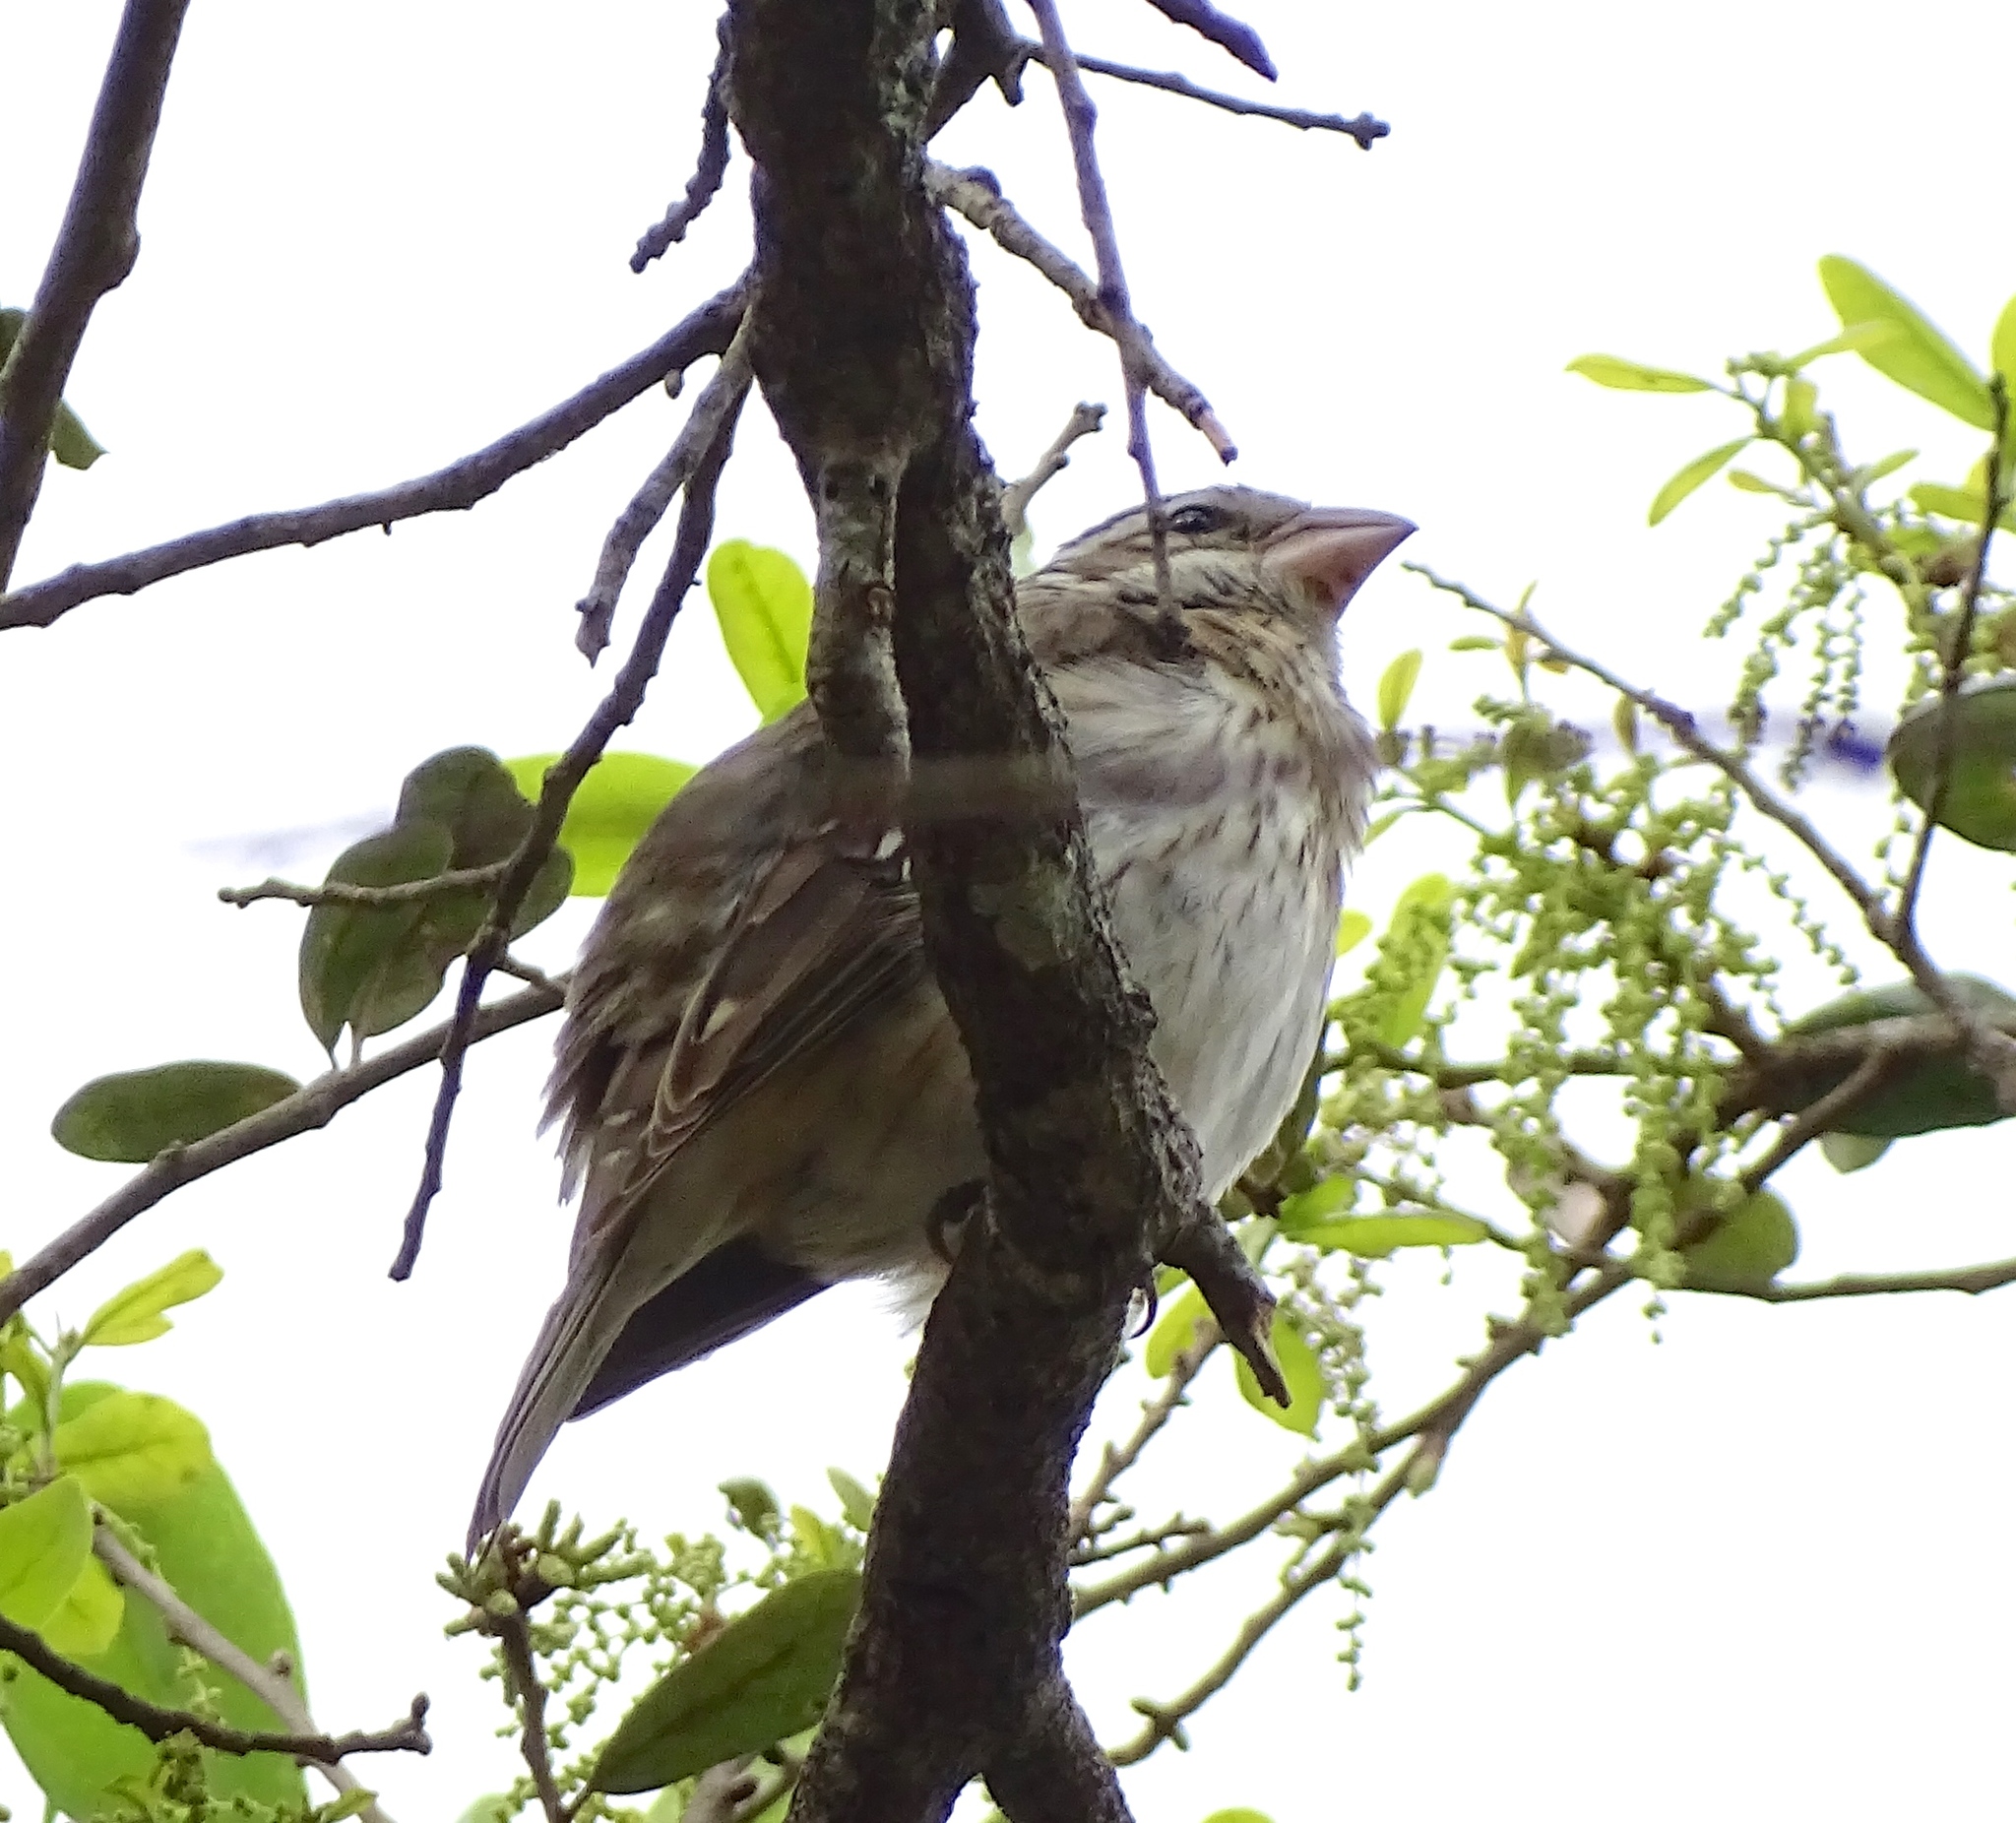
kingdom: Animalia
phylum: Chordata
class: Aves
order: Passeriformes
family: Cardinalidae
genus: Pheucticus
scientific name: Pheucticus ludovicianus
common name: Rose-breasted grosbeak
